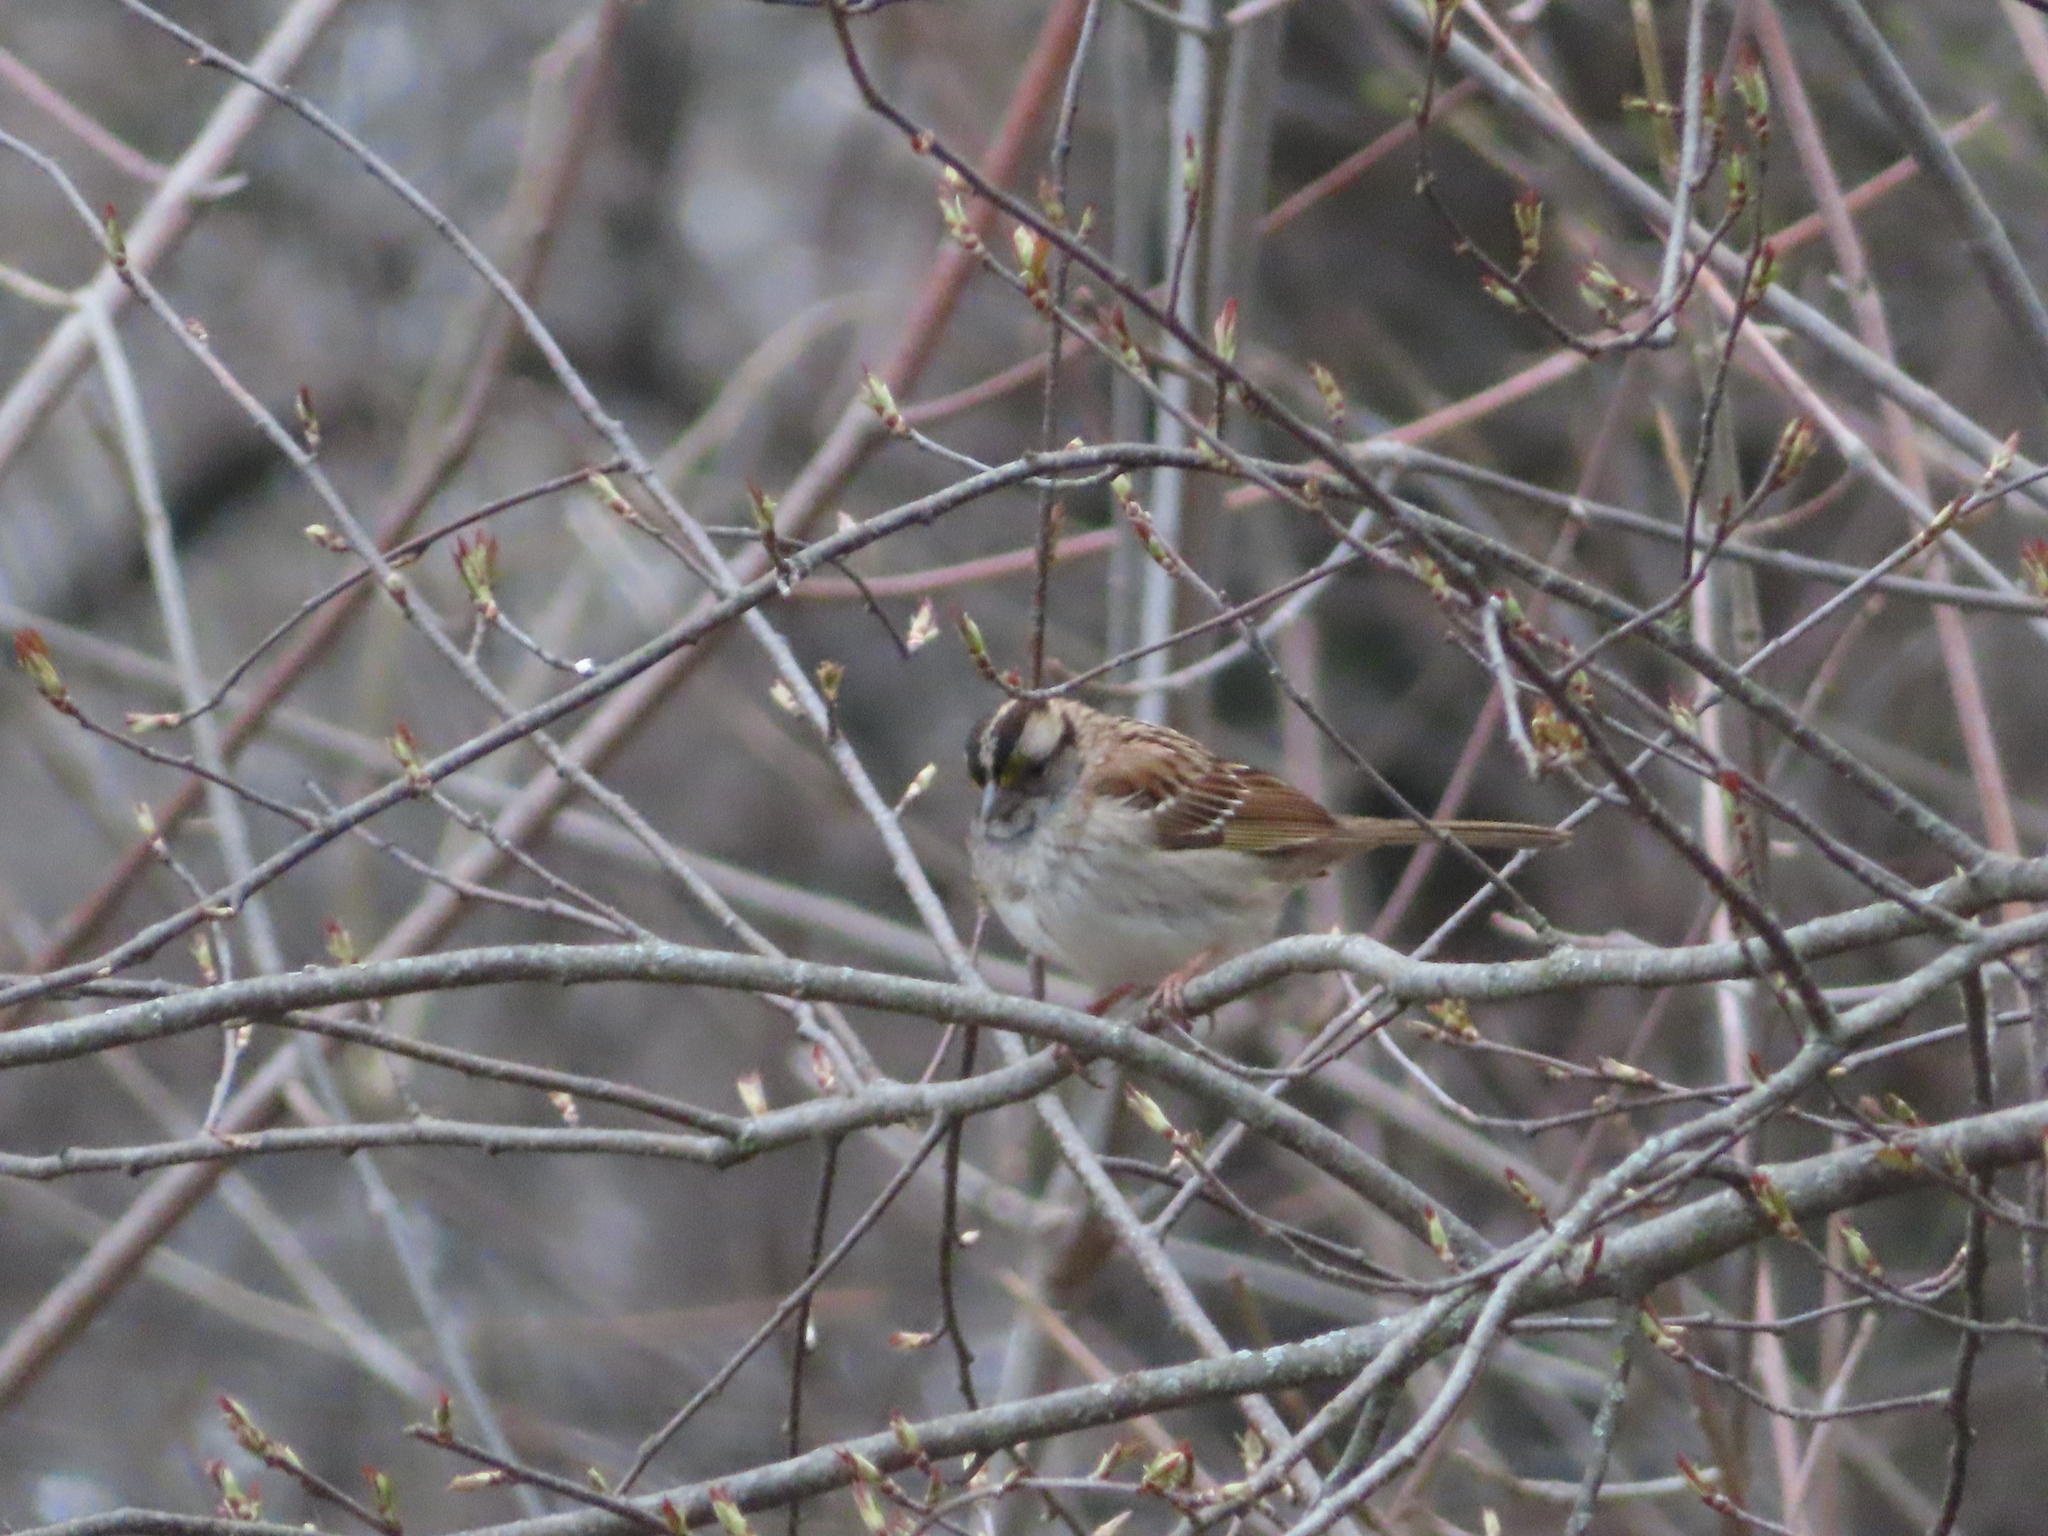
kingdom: Animalia
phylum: Chordata
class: Aves
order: Passeriformes
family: Passerellidae
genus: Zonotrichia
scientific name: Zonotrichia albicollis
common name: White-throated sparrow
